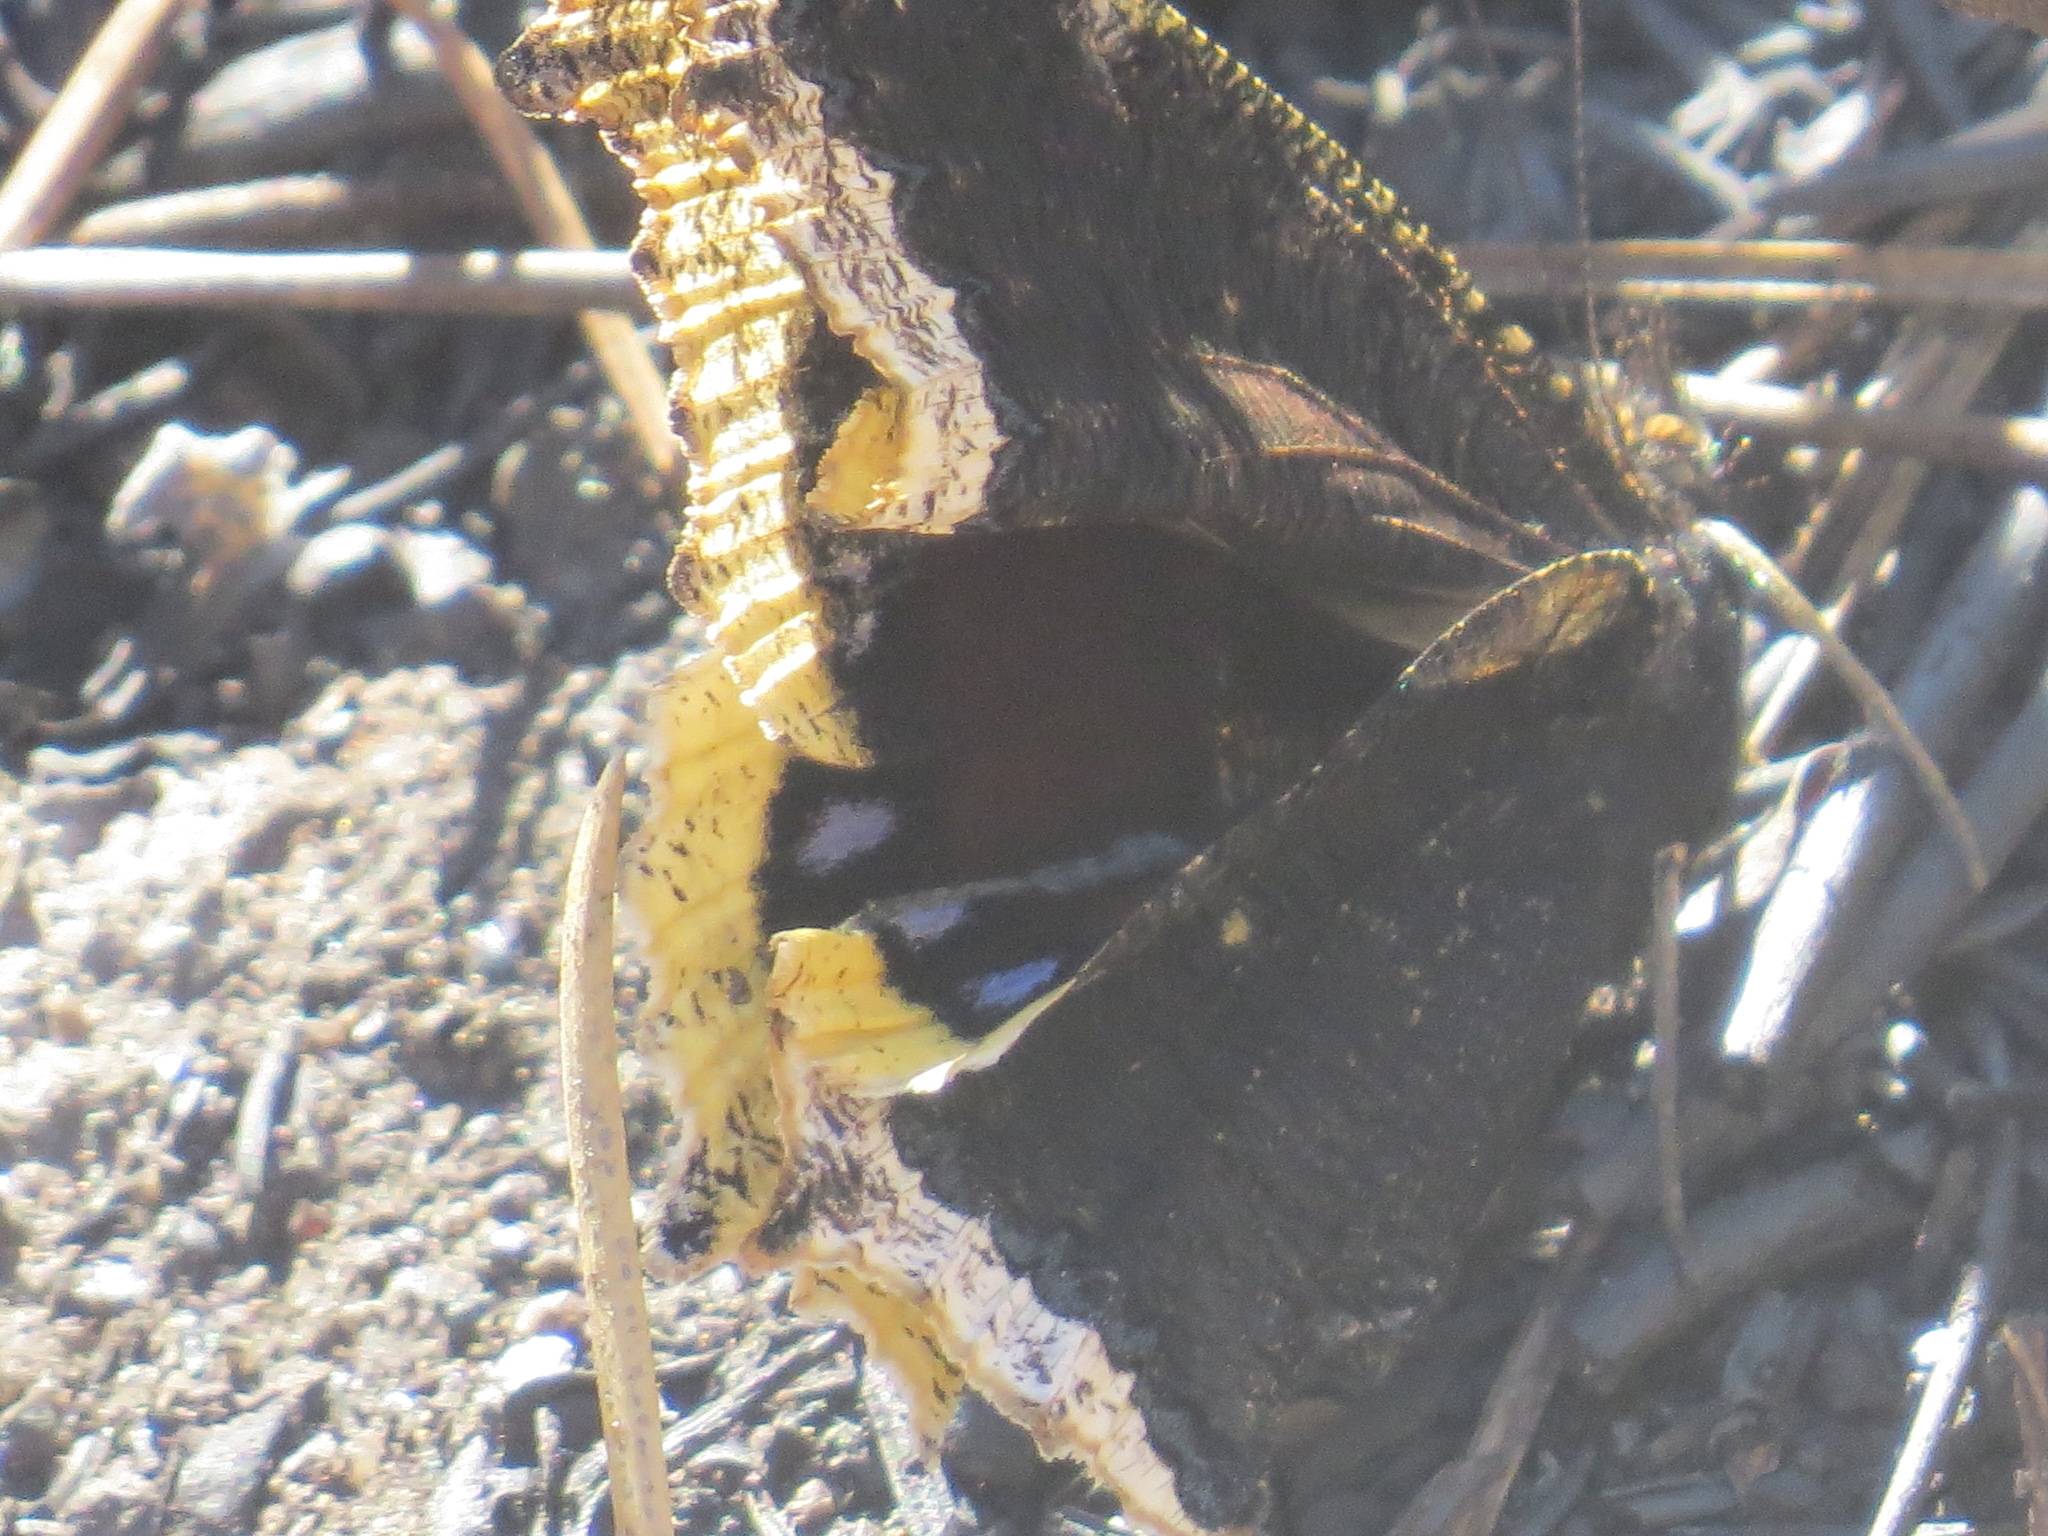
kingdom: Animalia
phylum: Arthropoda
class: Insecta
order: Lepidoptera
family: Nymphalidae
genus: Nymphalis
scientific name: Nymphalis antiopa
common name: Camberwell beauty
